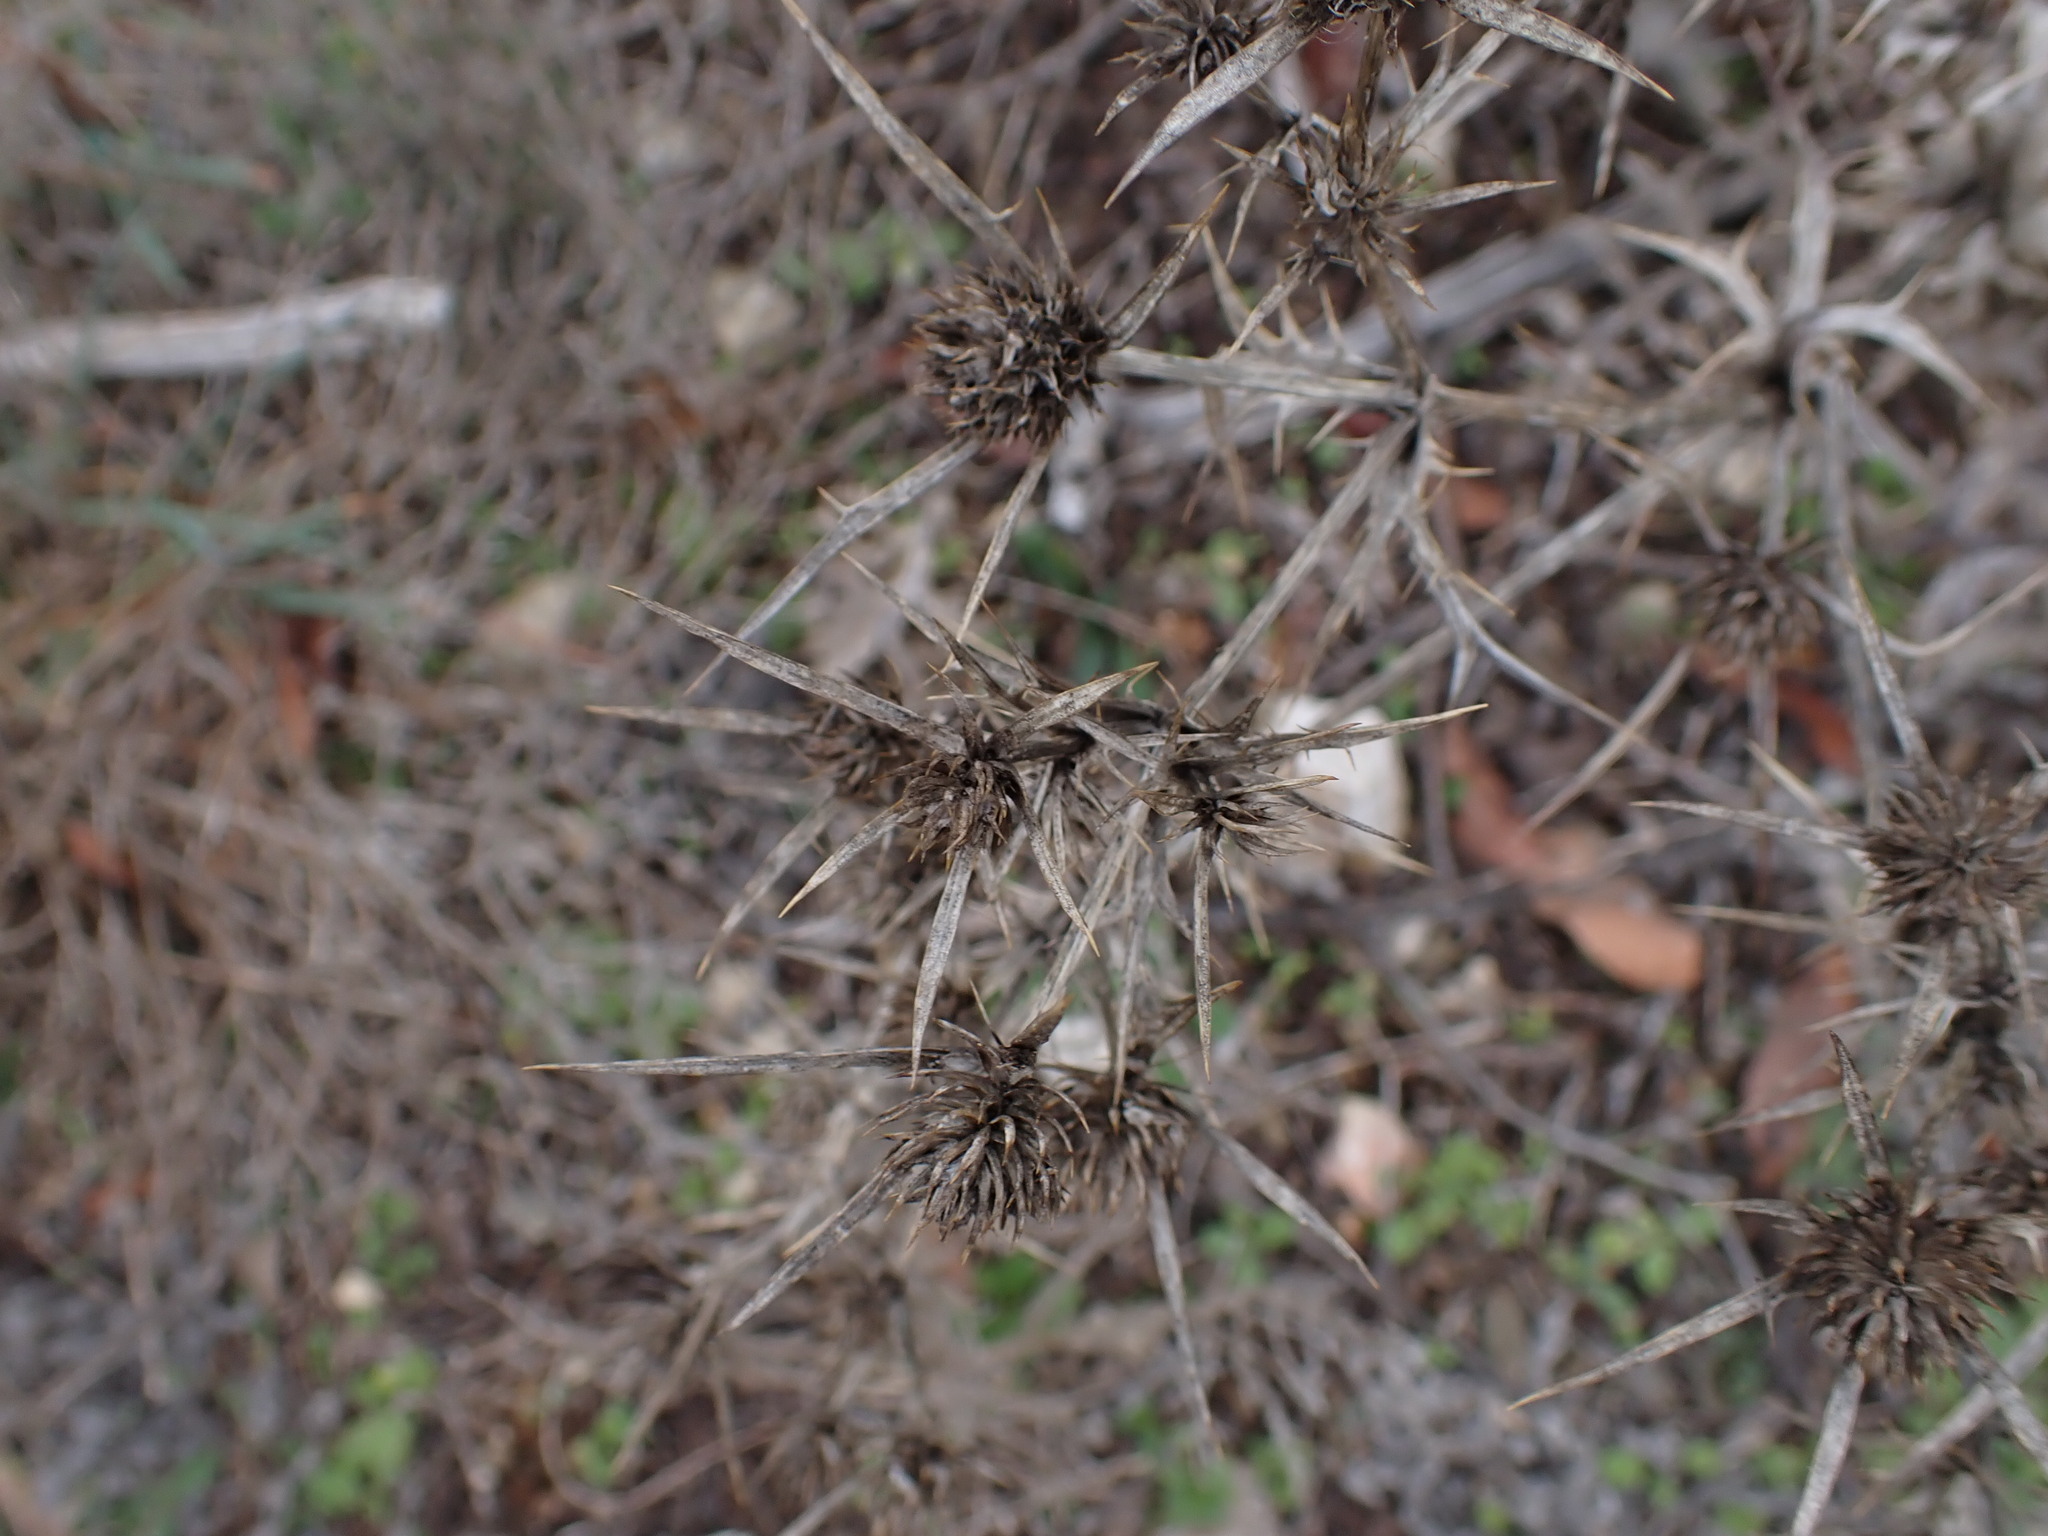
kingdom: Plantae
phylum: Tracheophyta
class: Magnoliopsida
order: Apiales
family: Apiaceae
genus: Eryngium
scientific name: Eryngium campestre
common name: Field eryngo
